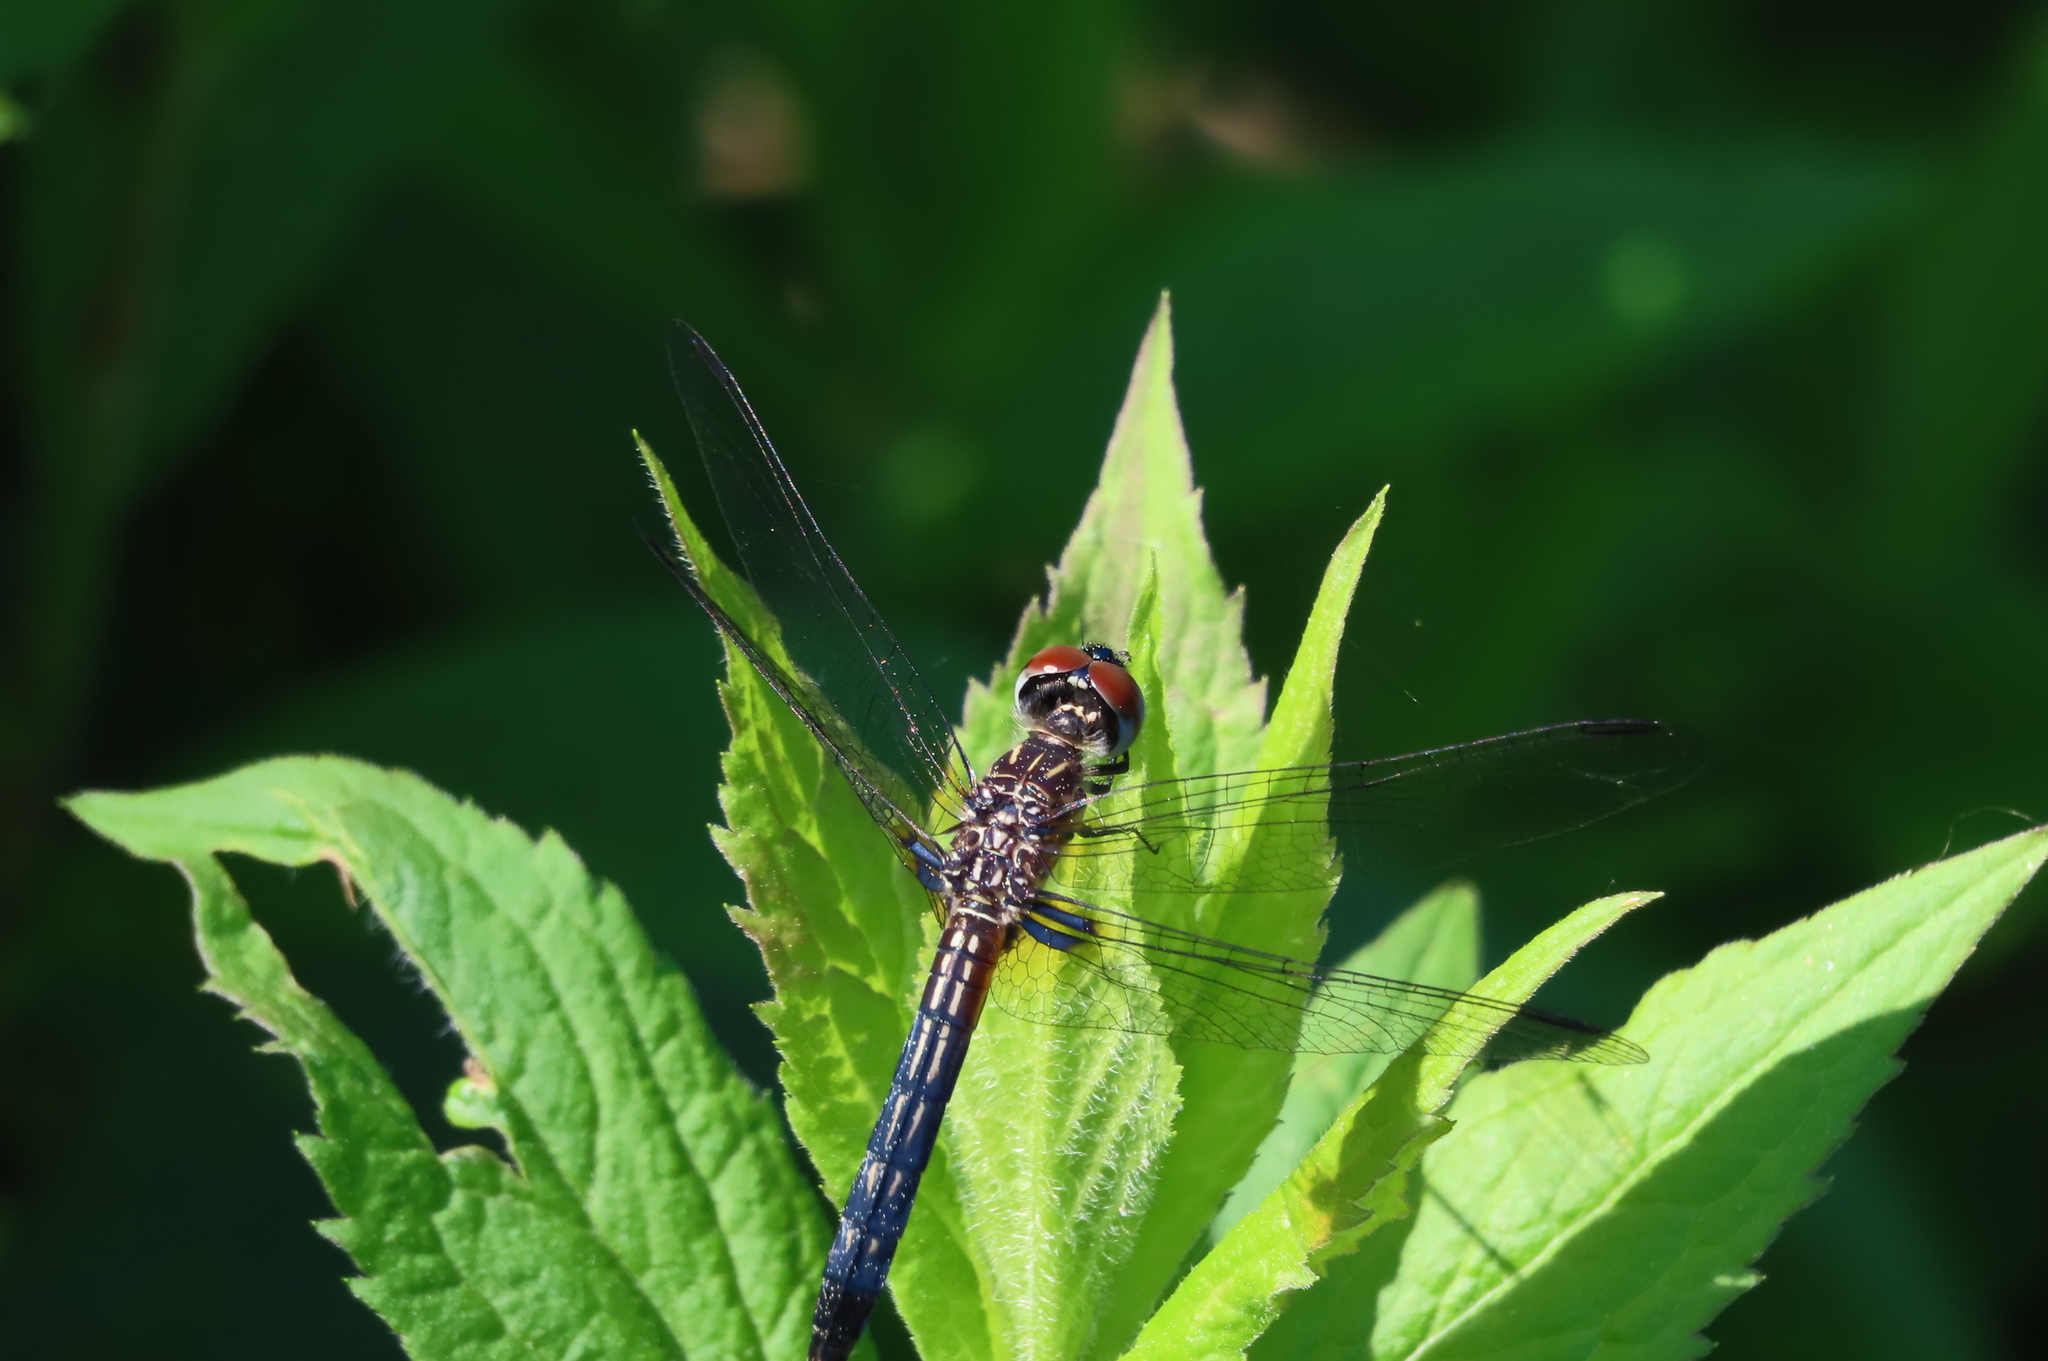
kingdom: Animalia
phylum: Arthropoda
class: Insecta
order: Odonata
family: Libellulidae
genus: Pachydiplax
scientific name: Pachydiplax longipennis
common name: Blue dasher
